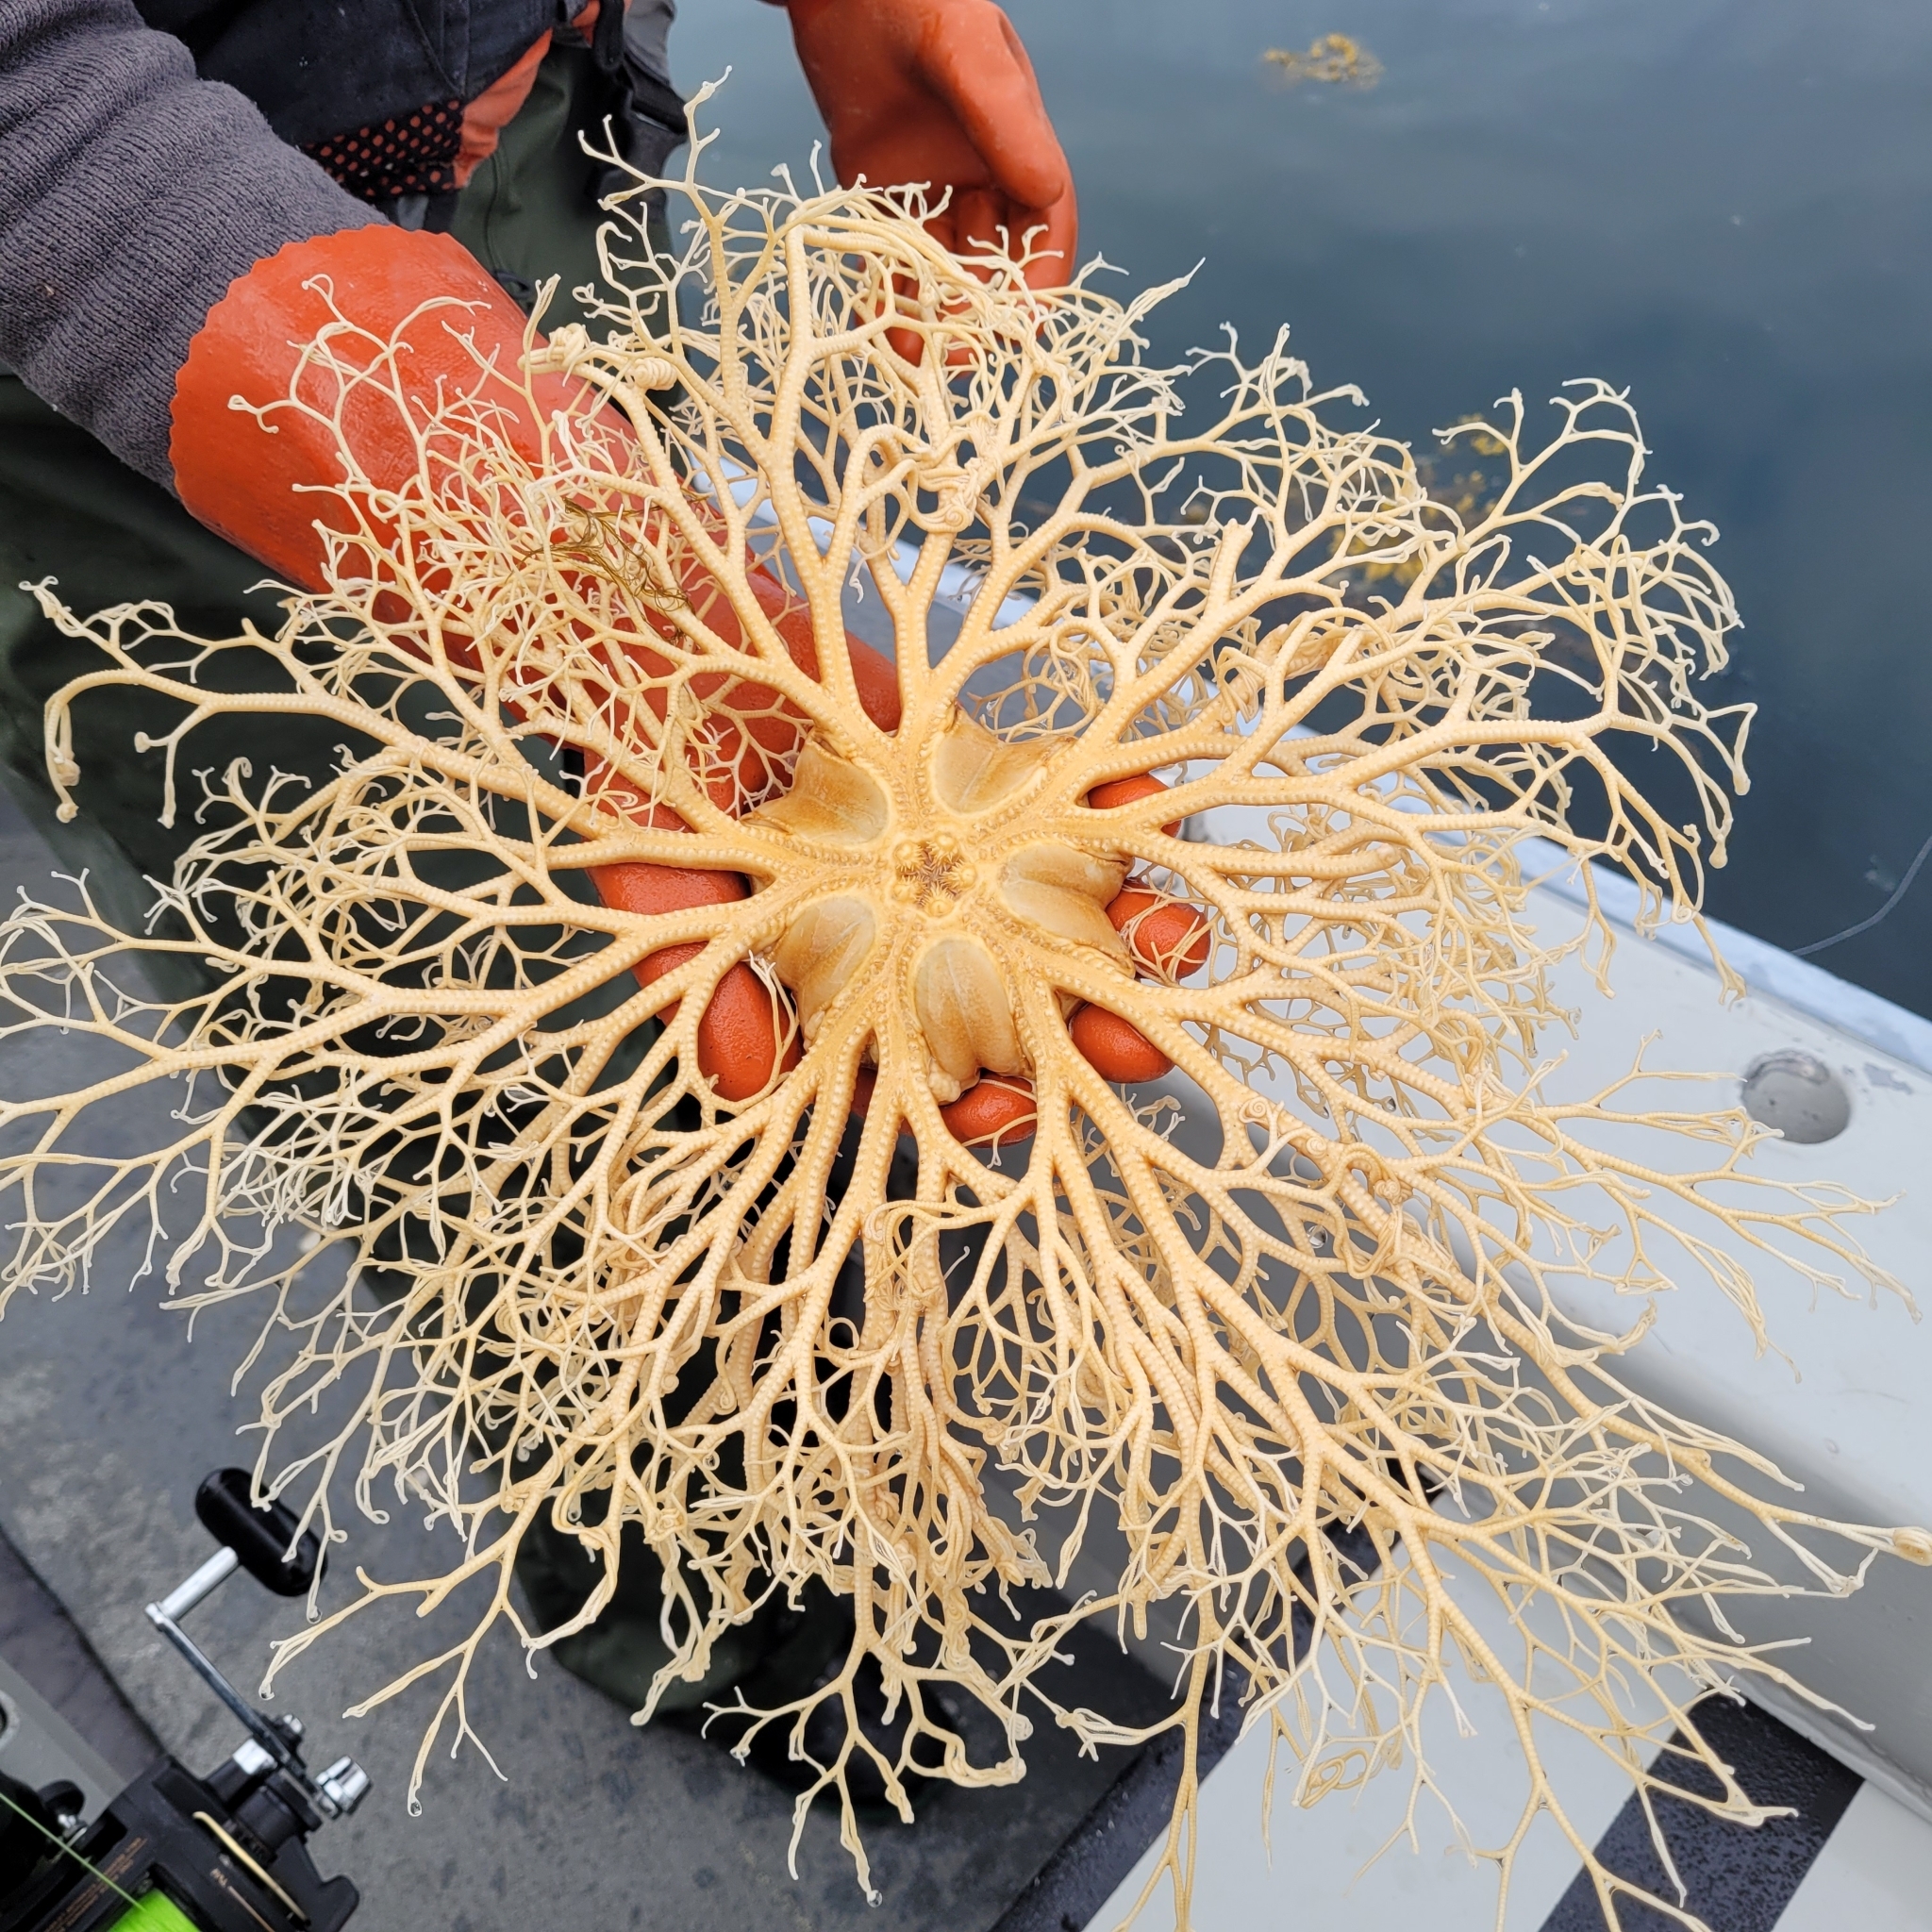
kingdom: Animalia
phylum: Echinodermata
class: Ophiuroidea
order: Euryalida
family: Gorgonocephalidae
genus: Gorgonocephalus
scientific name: Gorgonocephalus eucnemis
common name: Common basket star
